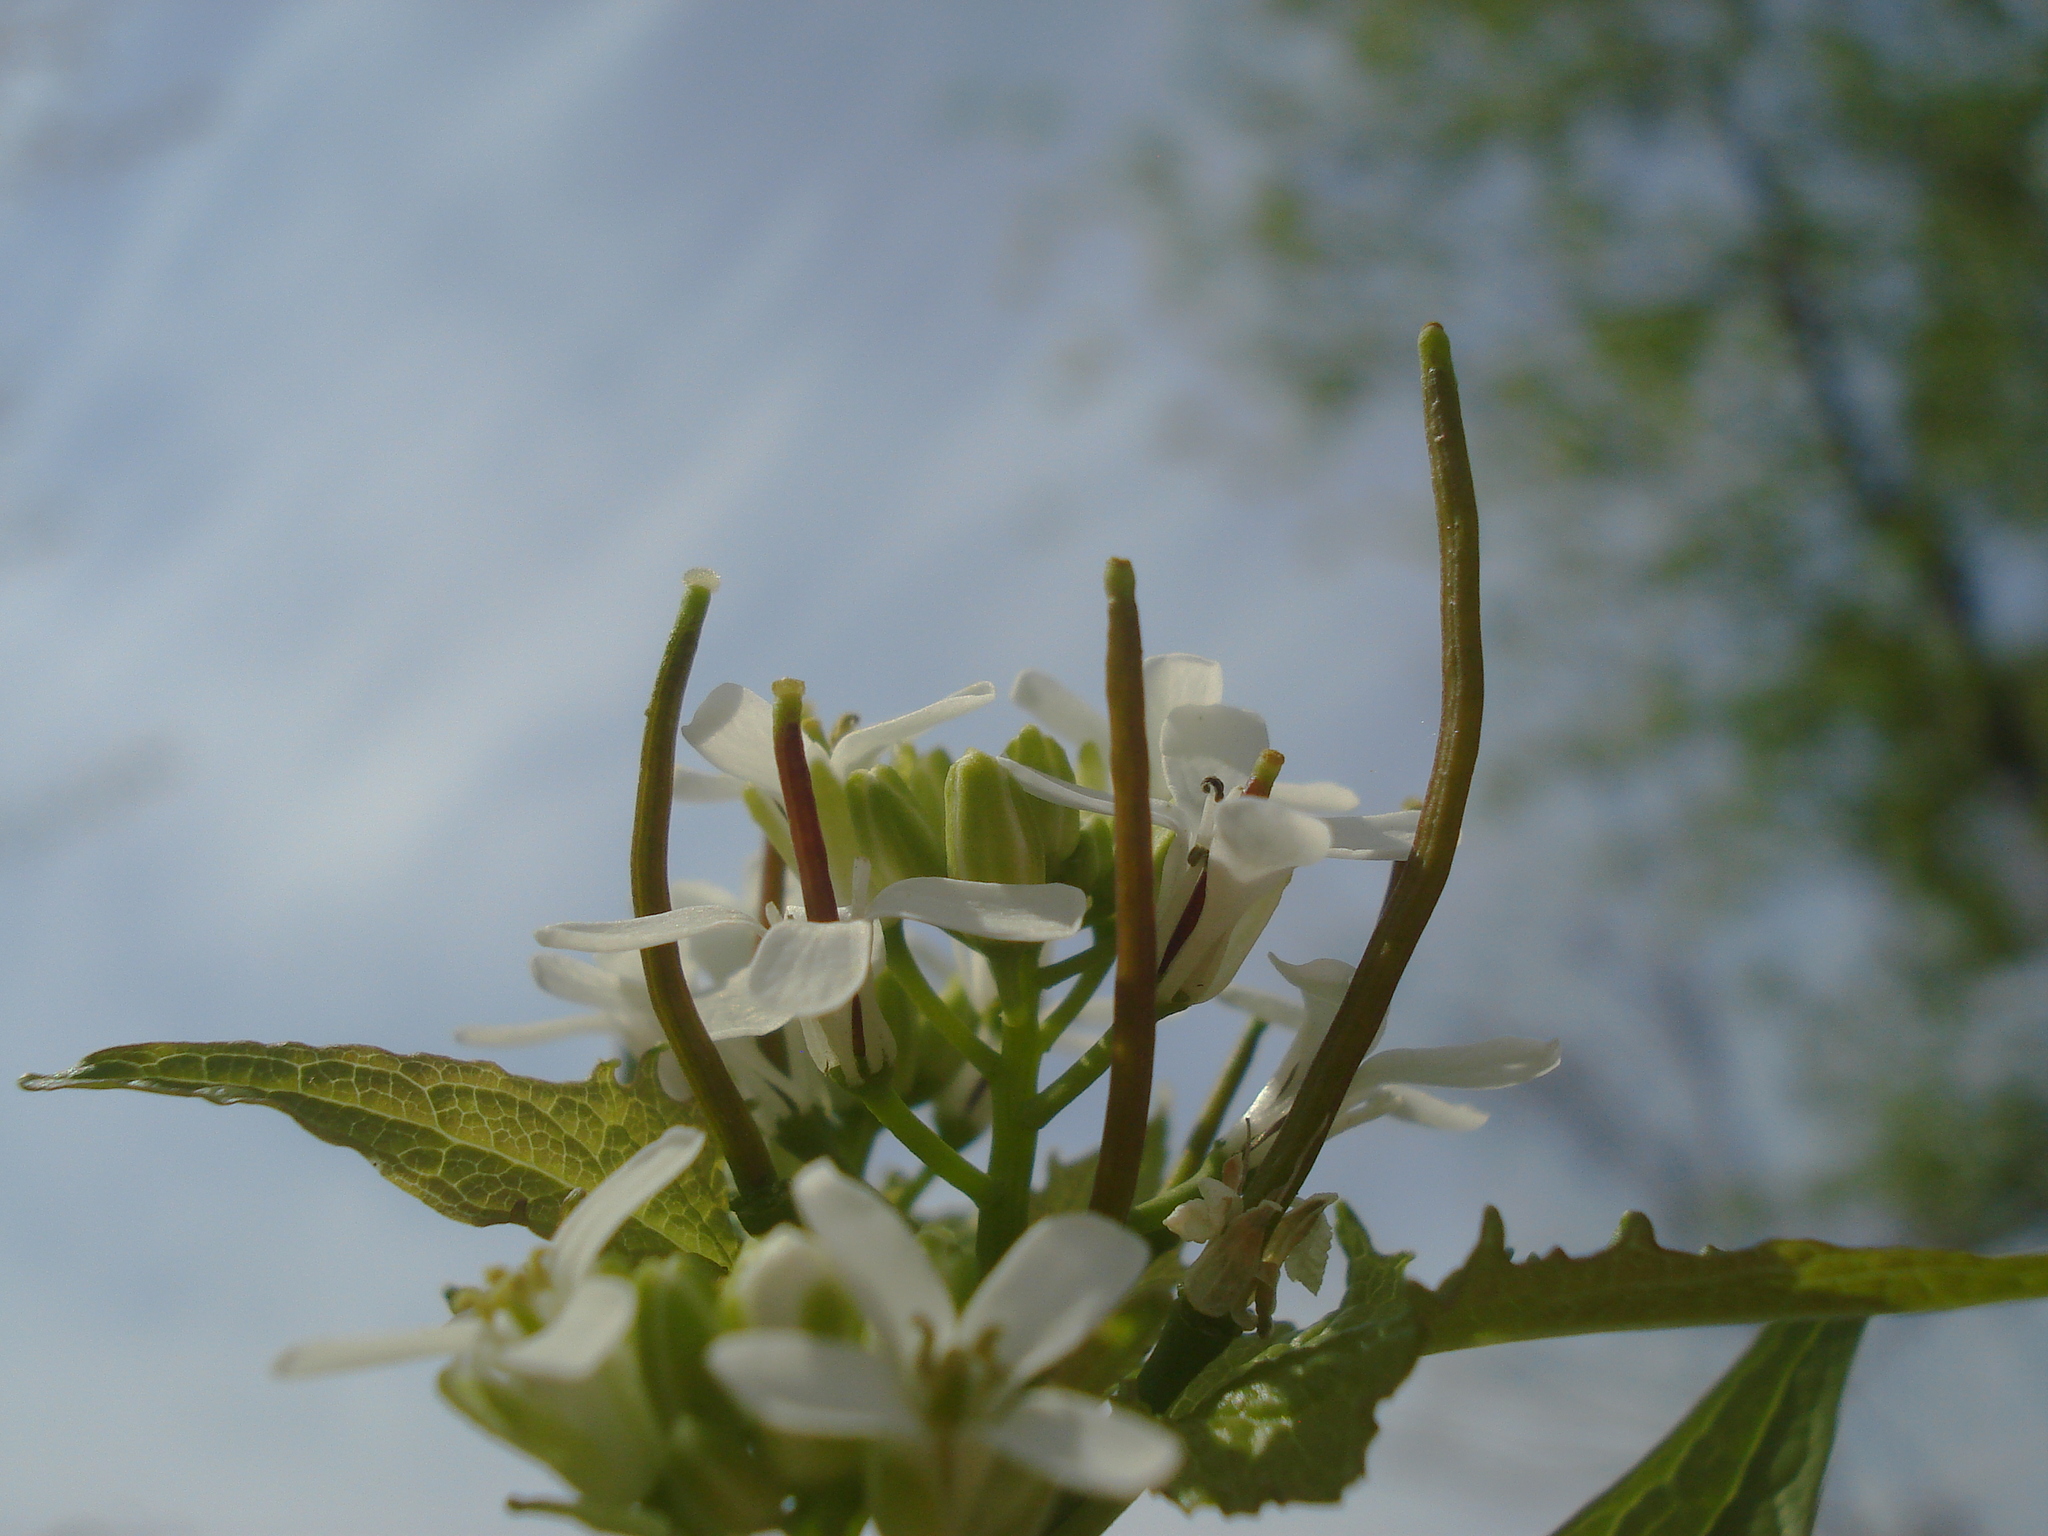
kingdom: Plantae
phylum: Tracheophyta
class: Magnoliopsida
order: Brassicales
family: Brassicaceae
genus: Alliaria
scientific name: Alliaria petiolata
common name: Garlic mustard
